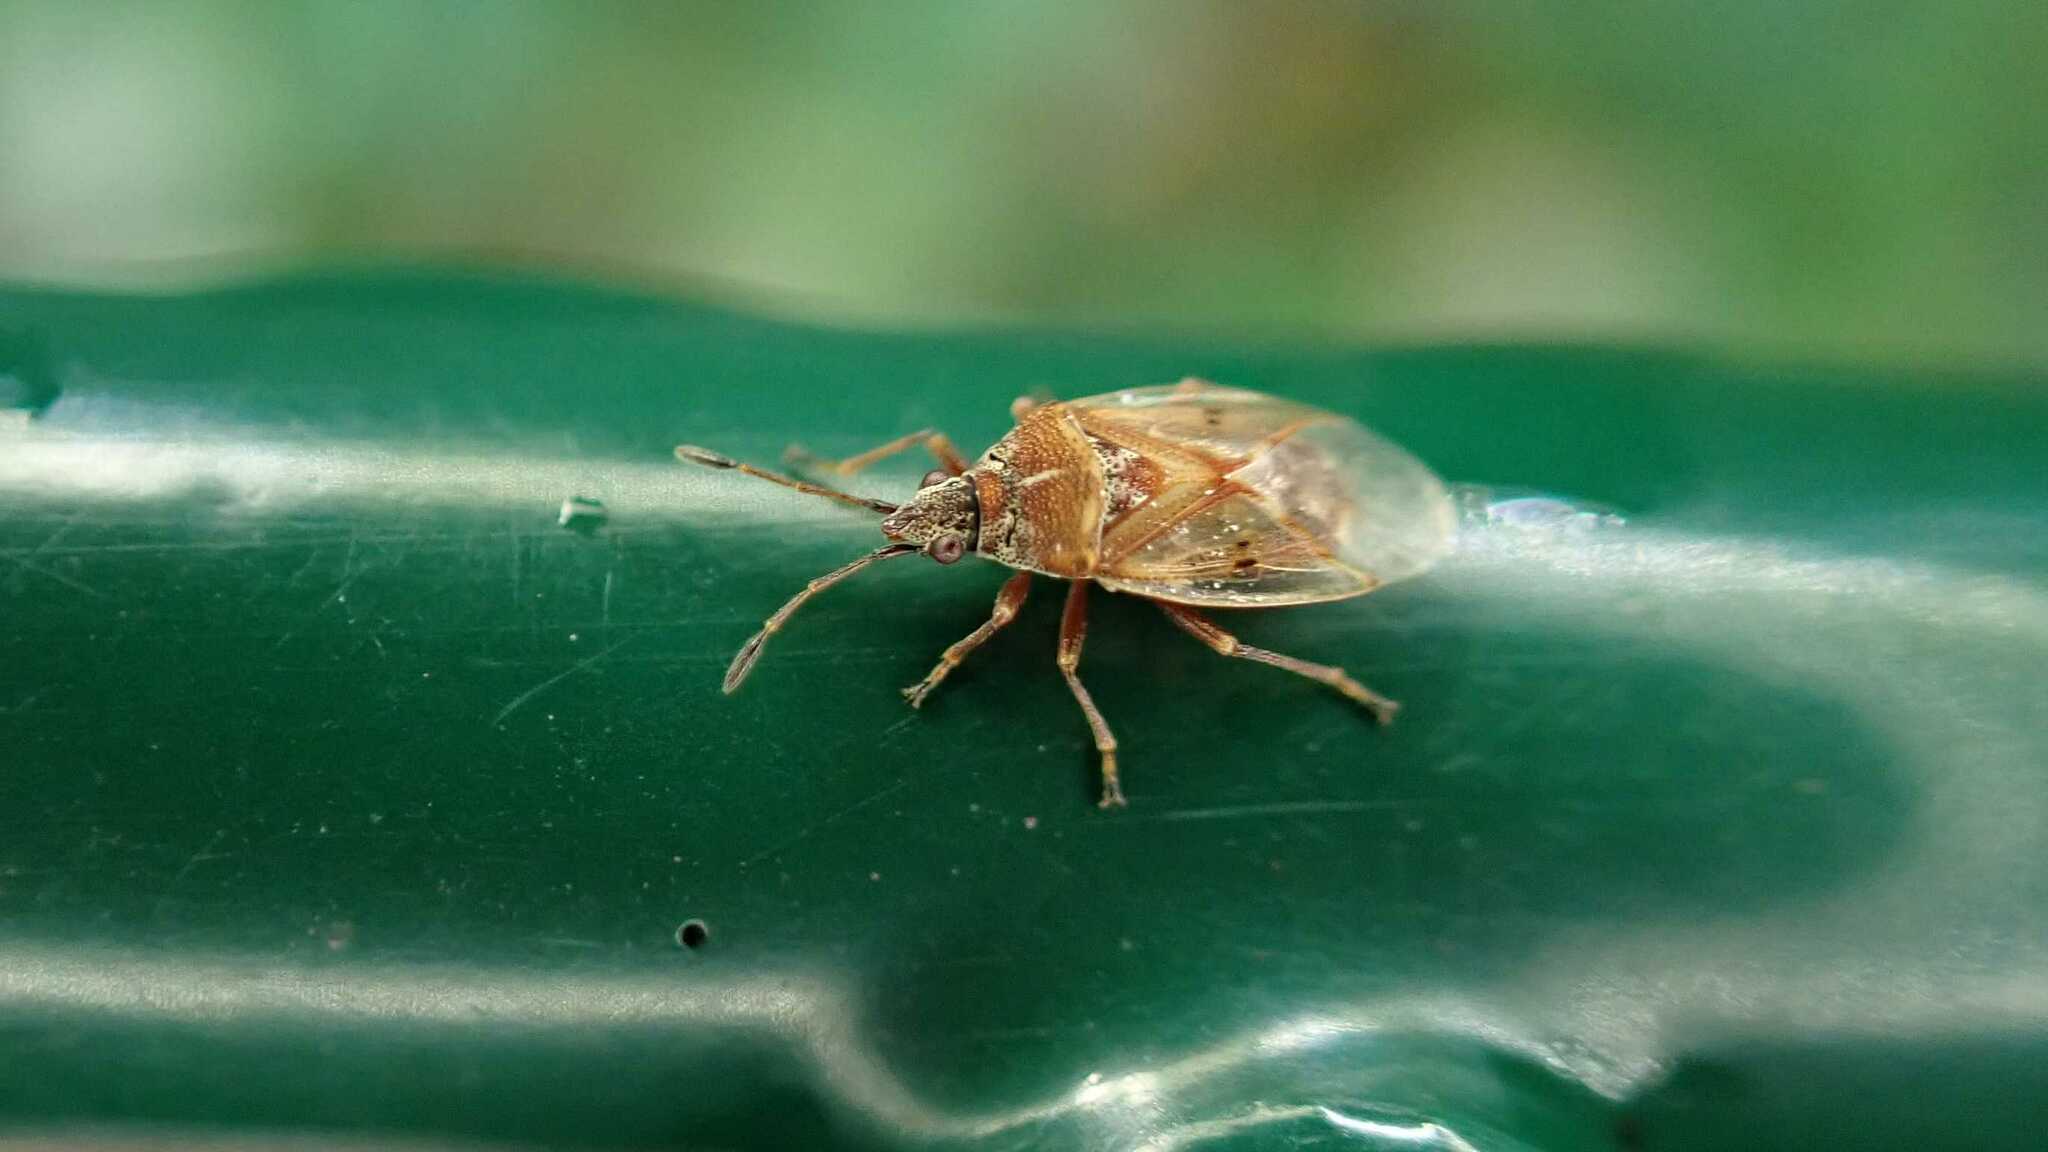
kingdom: Animalia
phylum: Arthropoda
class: Insecta
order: Hemiptera
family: Lygaeidae
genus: Kleidocerys
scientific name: Kleidocerys resedae
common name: Birch catkin bug
